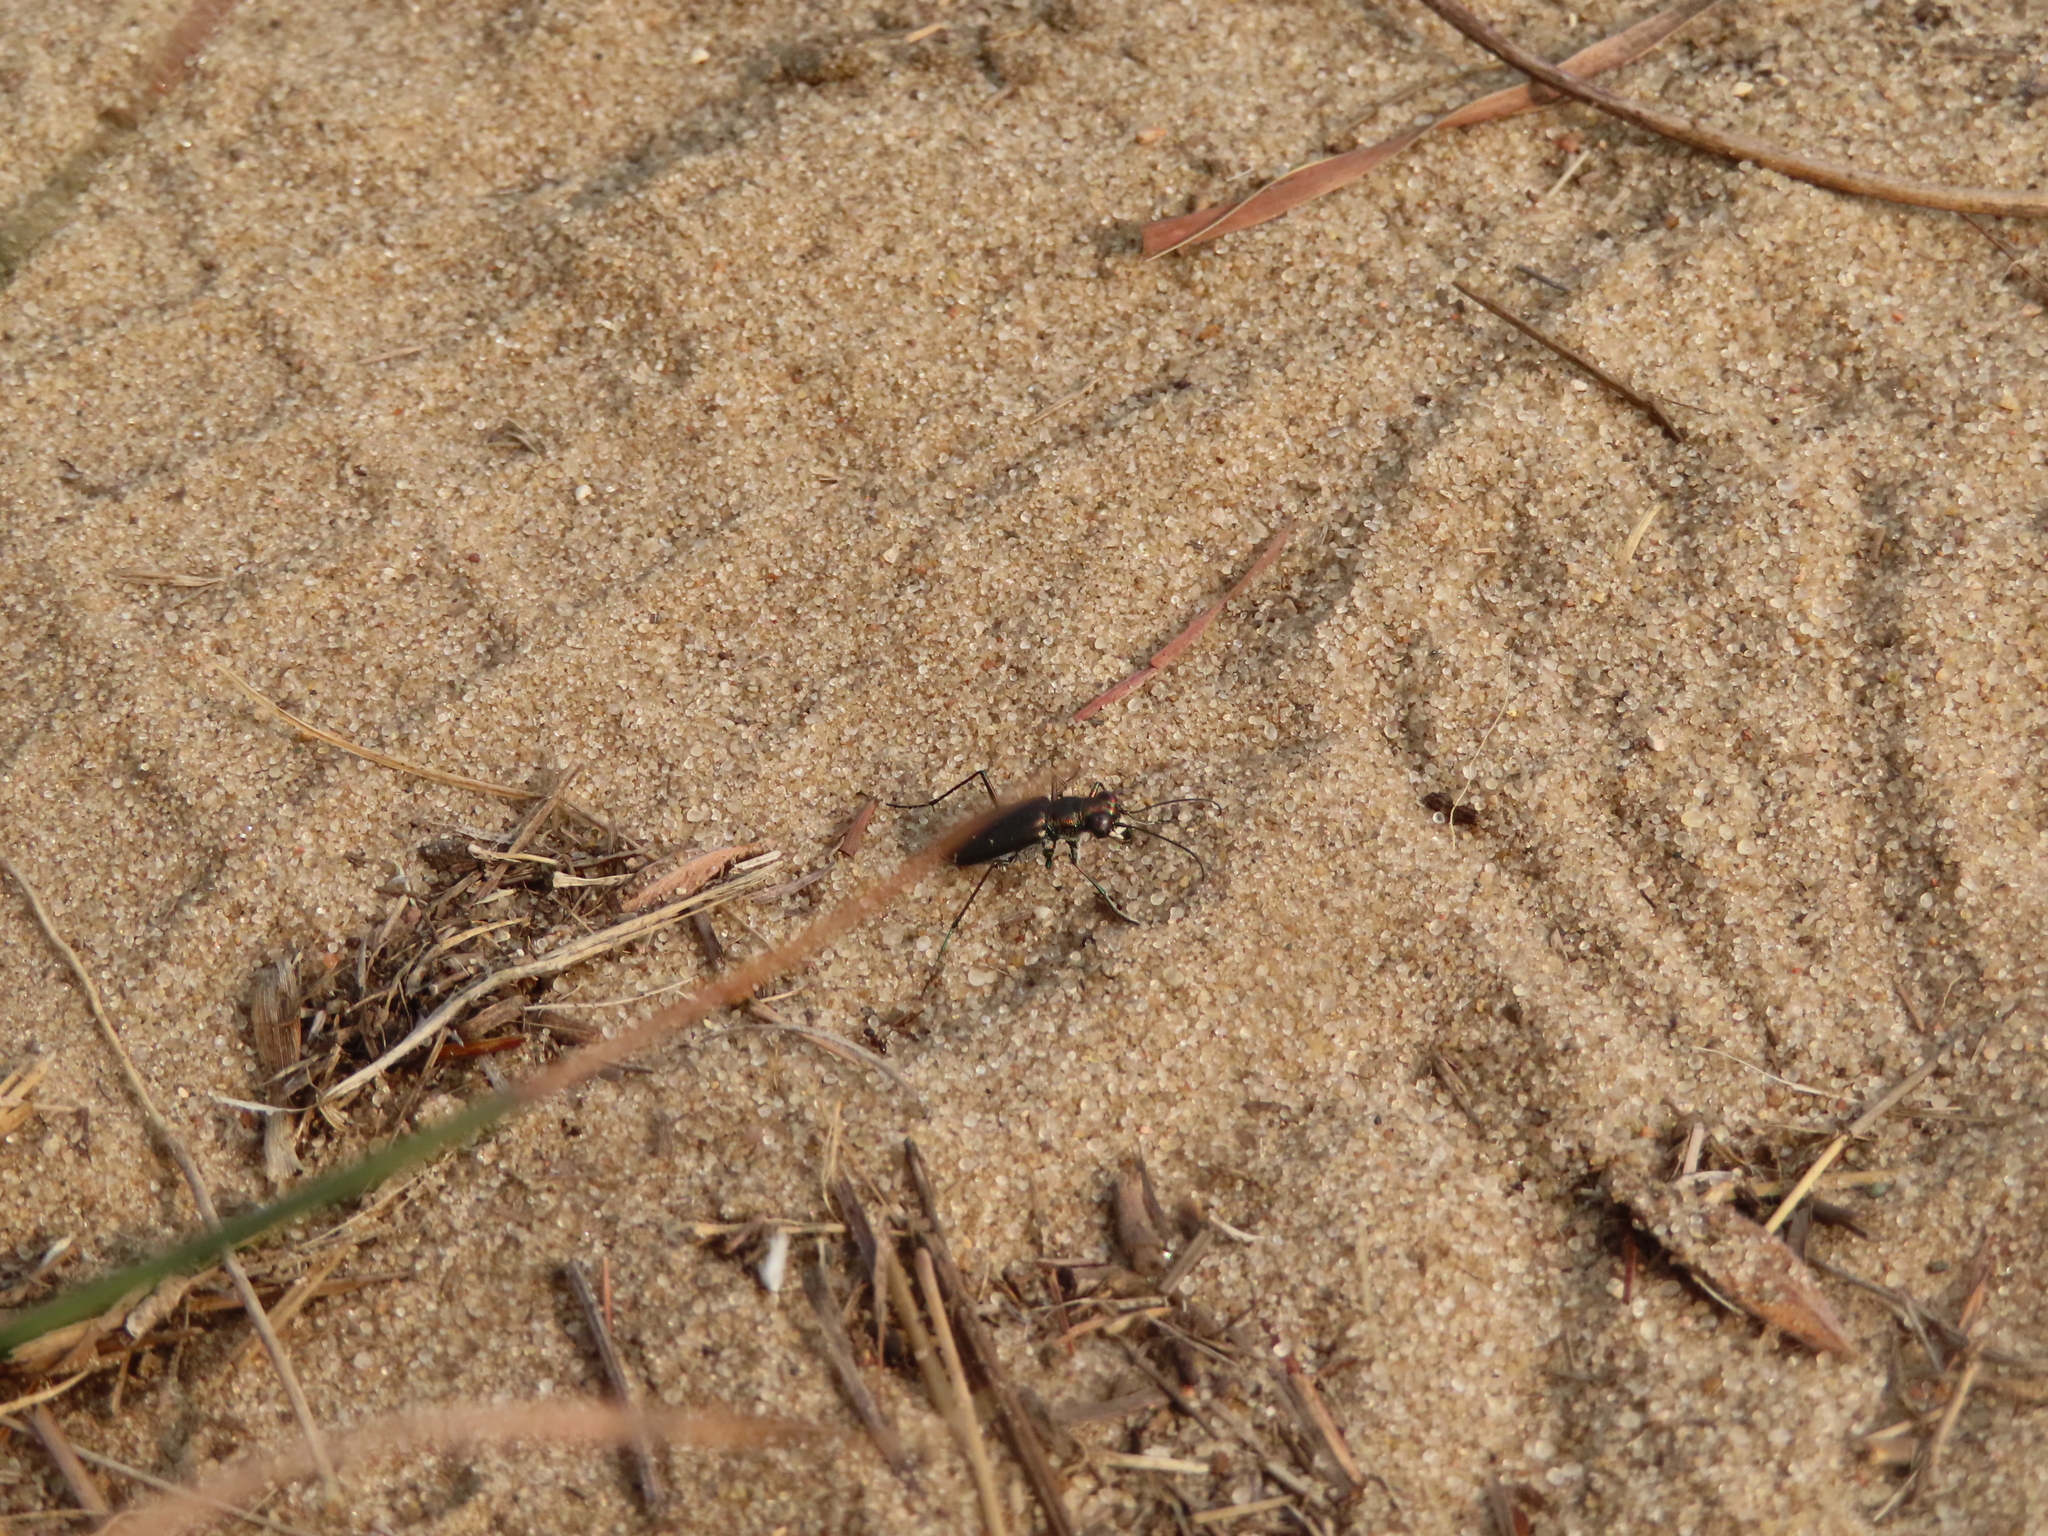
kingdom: Animalia
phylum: Arthropoda
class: Insecta
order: Coleoptera
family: Carabidae
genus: Cicindela
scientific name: Cicindela punctulata
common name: Punctured tiger beetle
